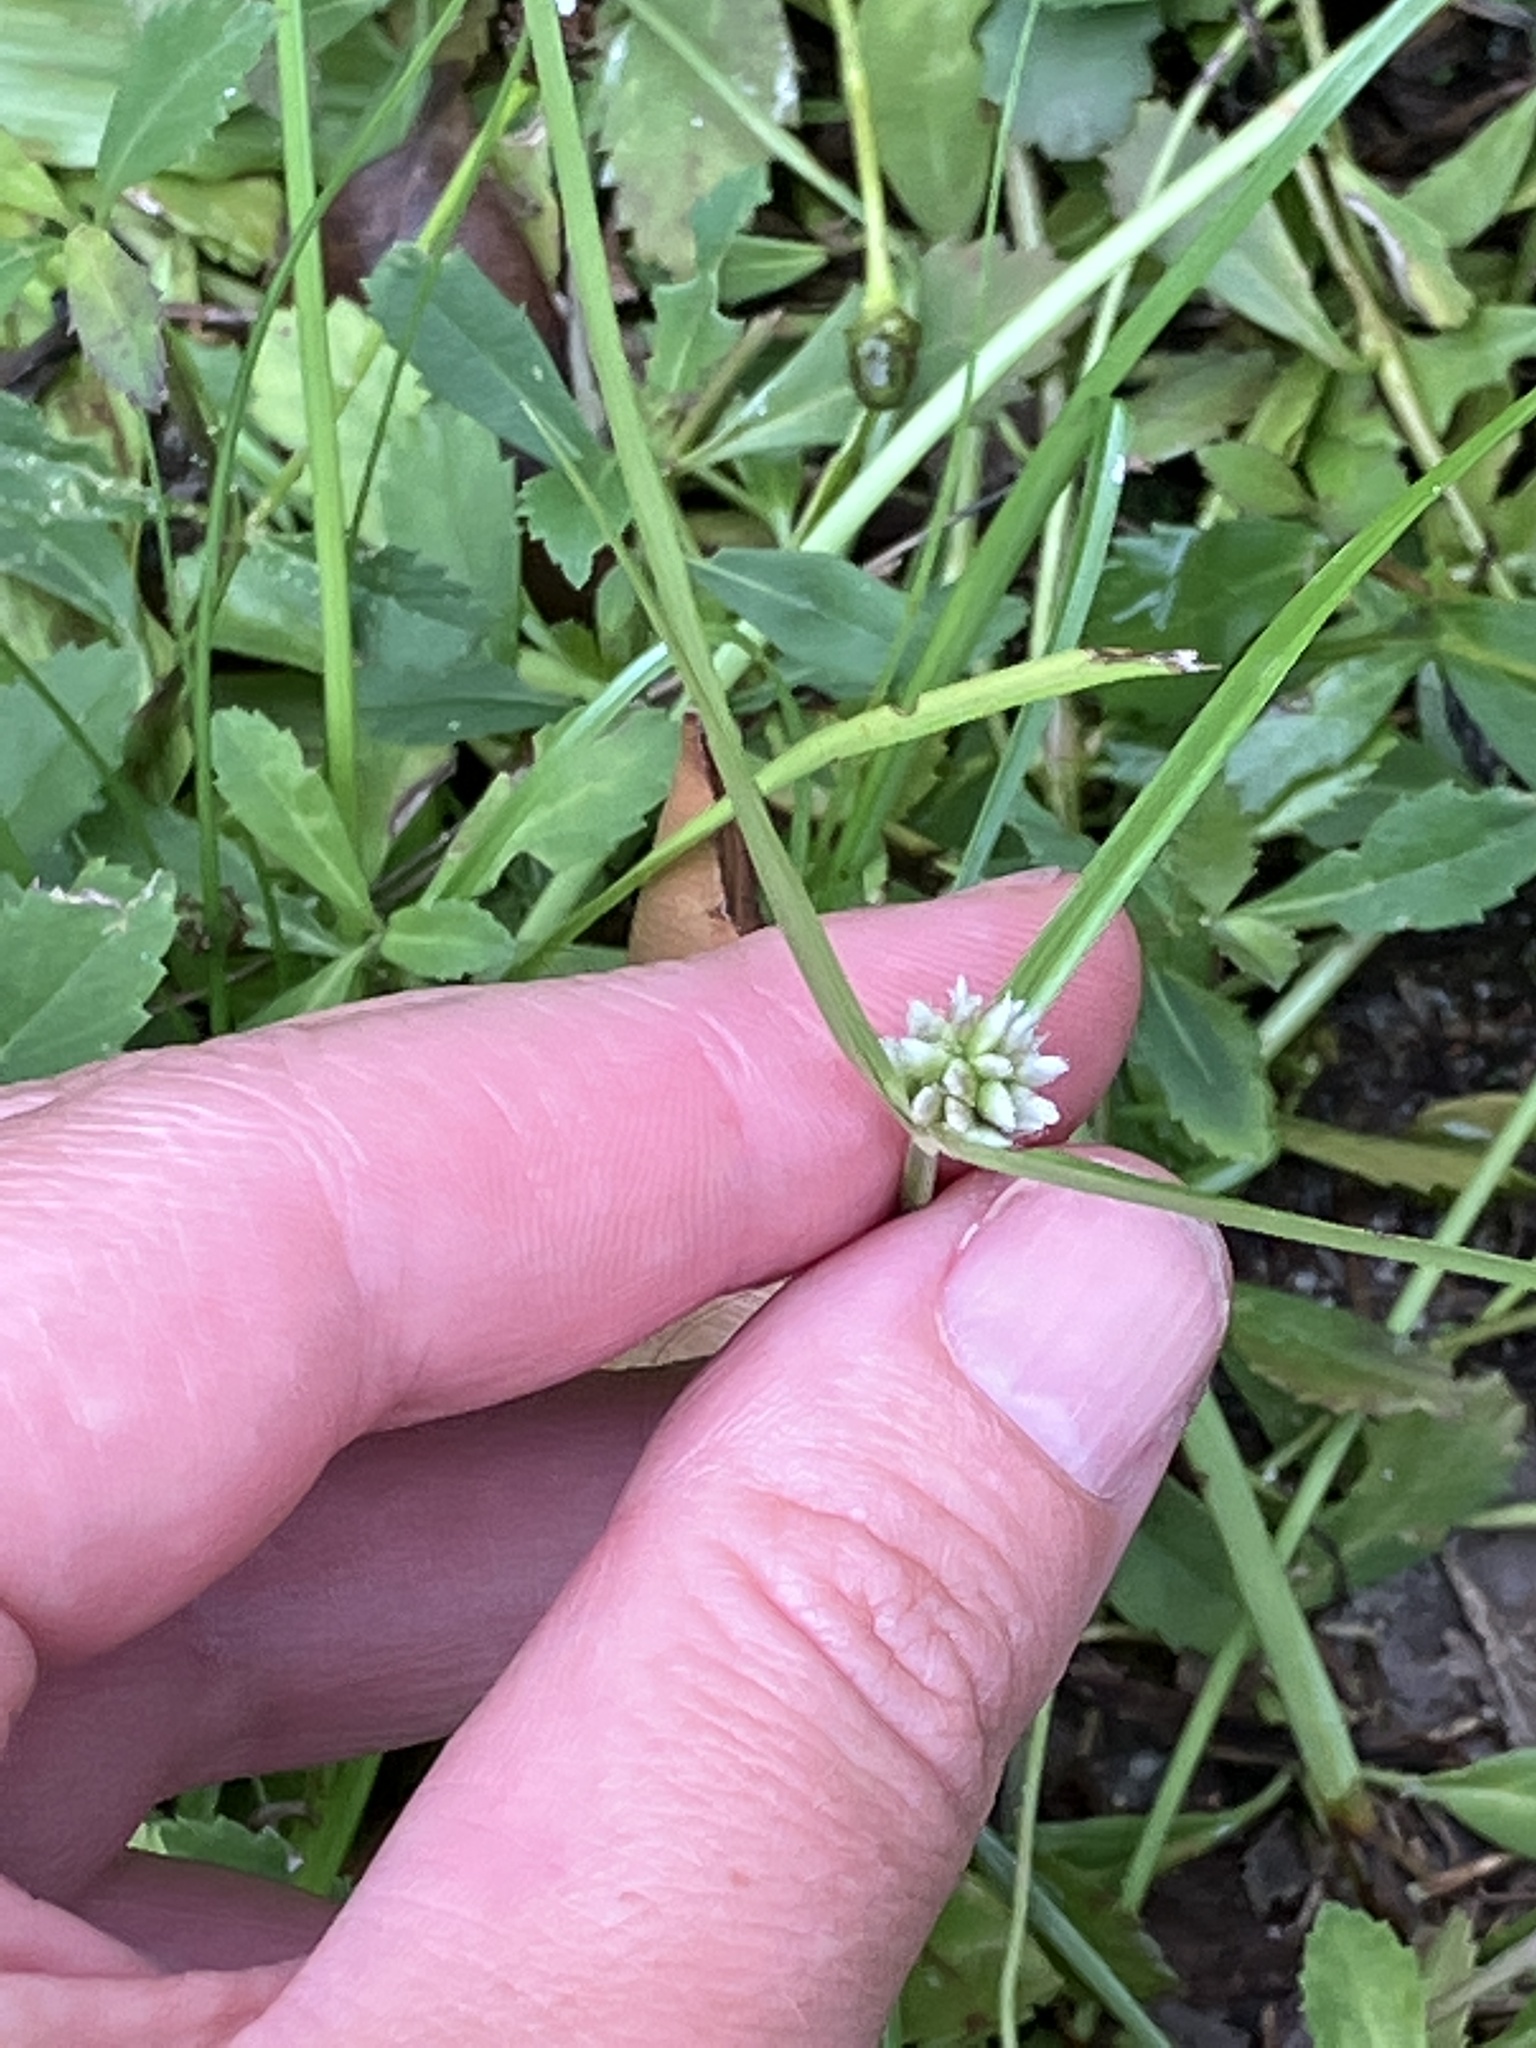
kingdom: Plantae
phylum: Tracheophyta
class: Liliopsida
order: Poales
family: Cyperaceae
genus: Cyperus
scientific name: Cyperus mindorensis
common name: Flatsedge
